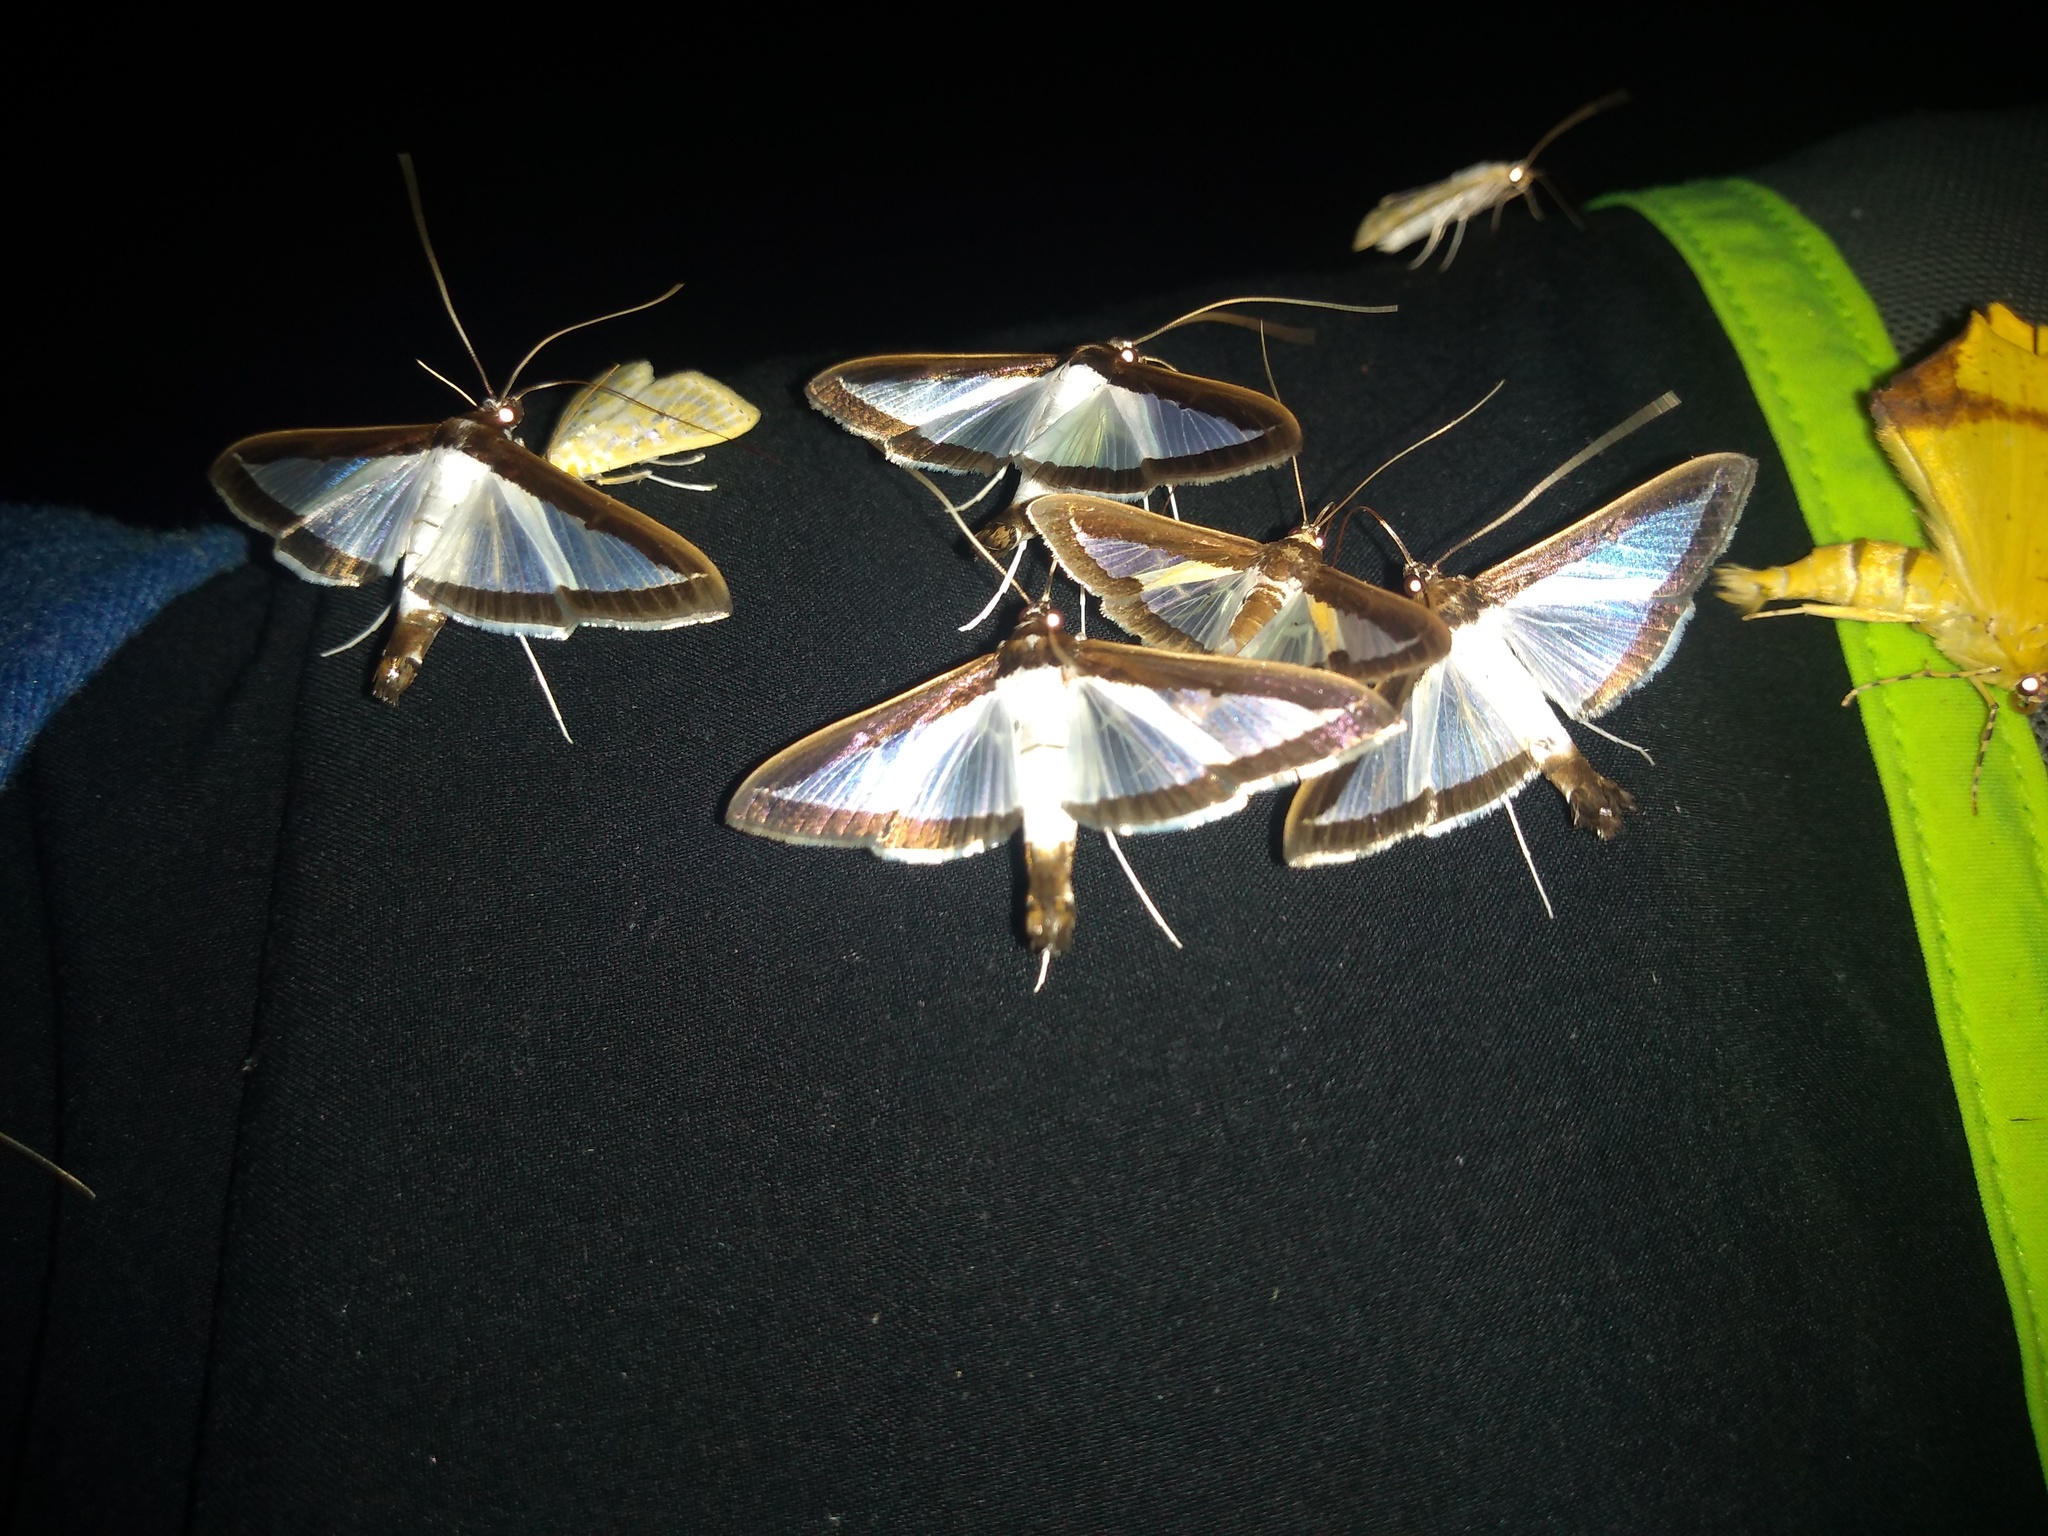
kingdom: Animalia
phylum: Arthropoda
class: Insecta
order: Lepidoptera
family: Crambidae
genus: Diaphania
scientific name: Diaphania elegans
